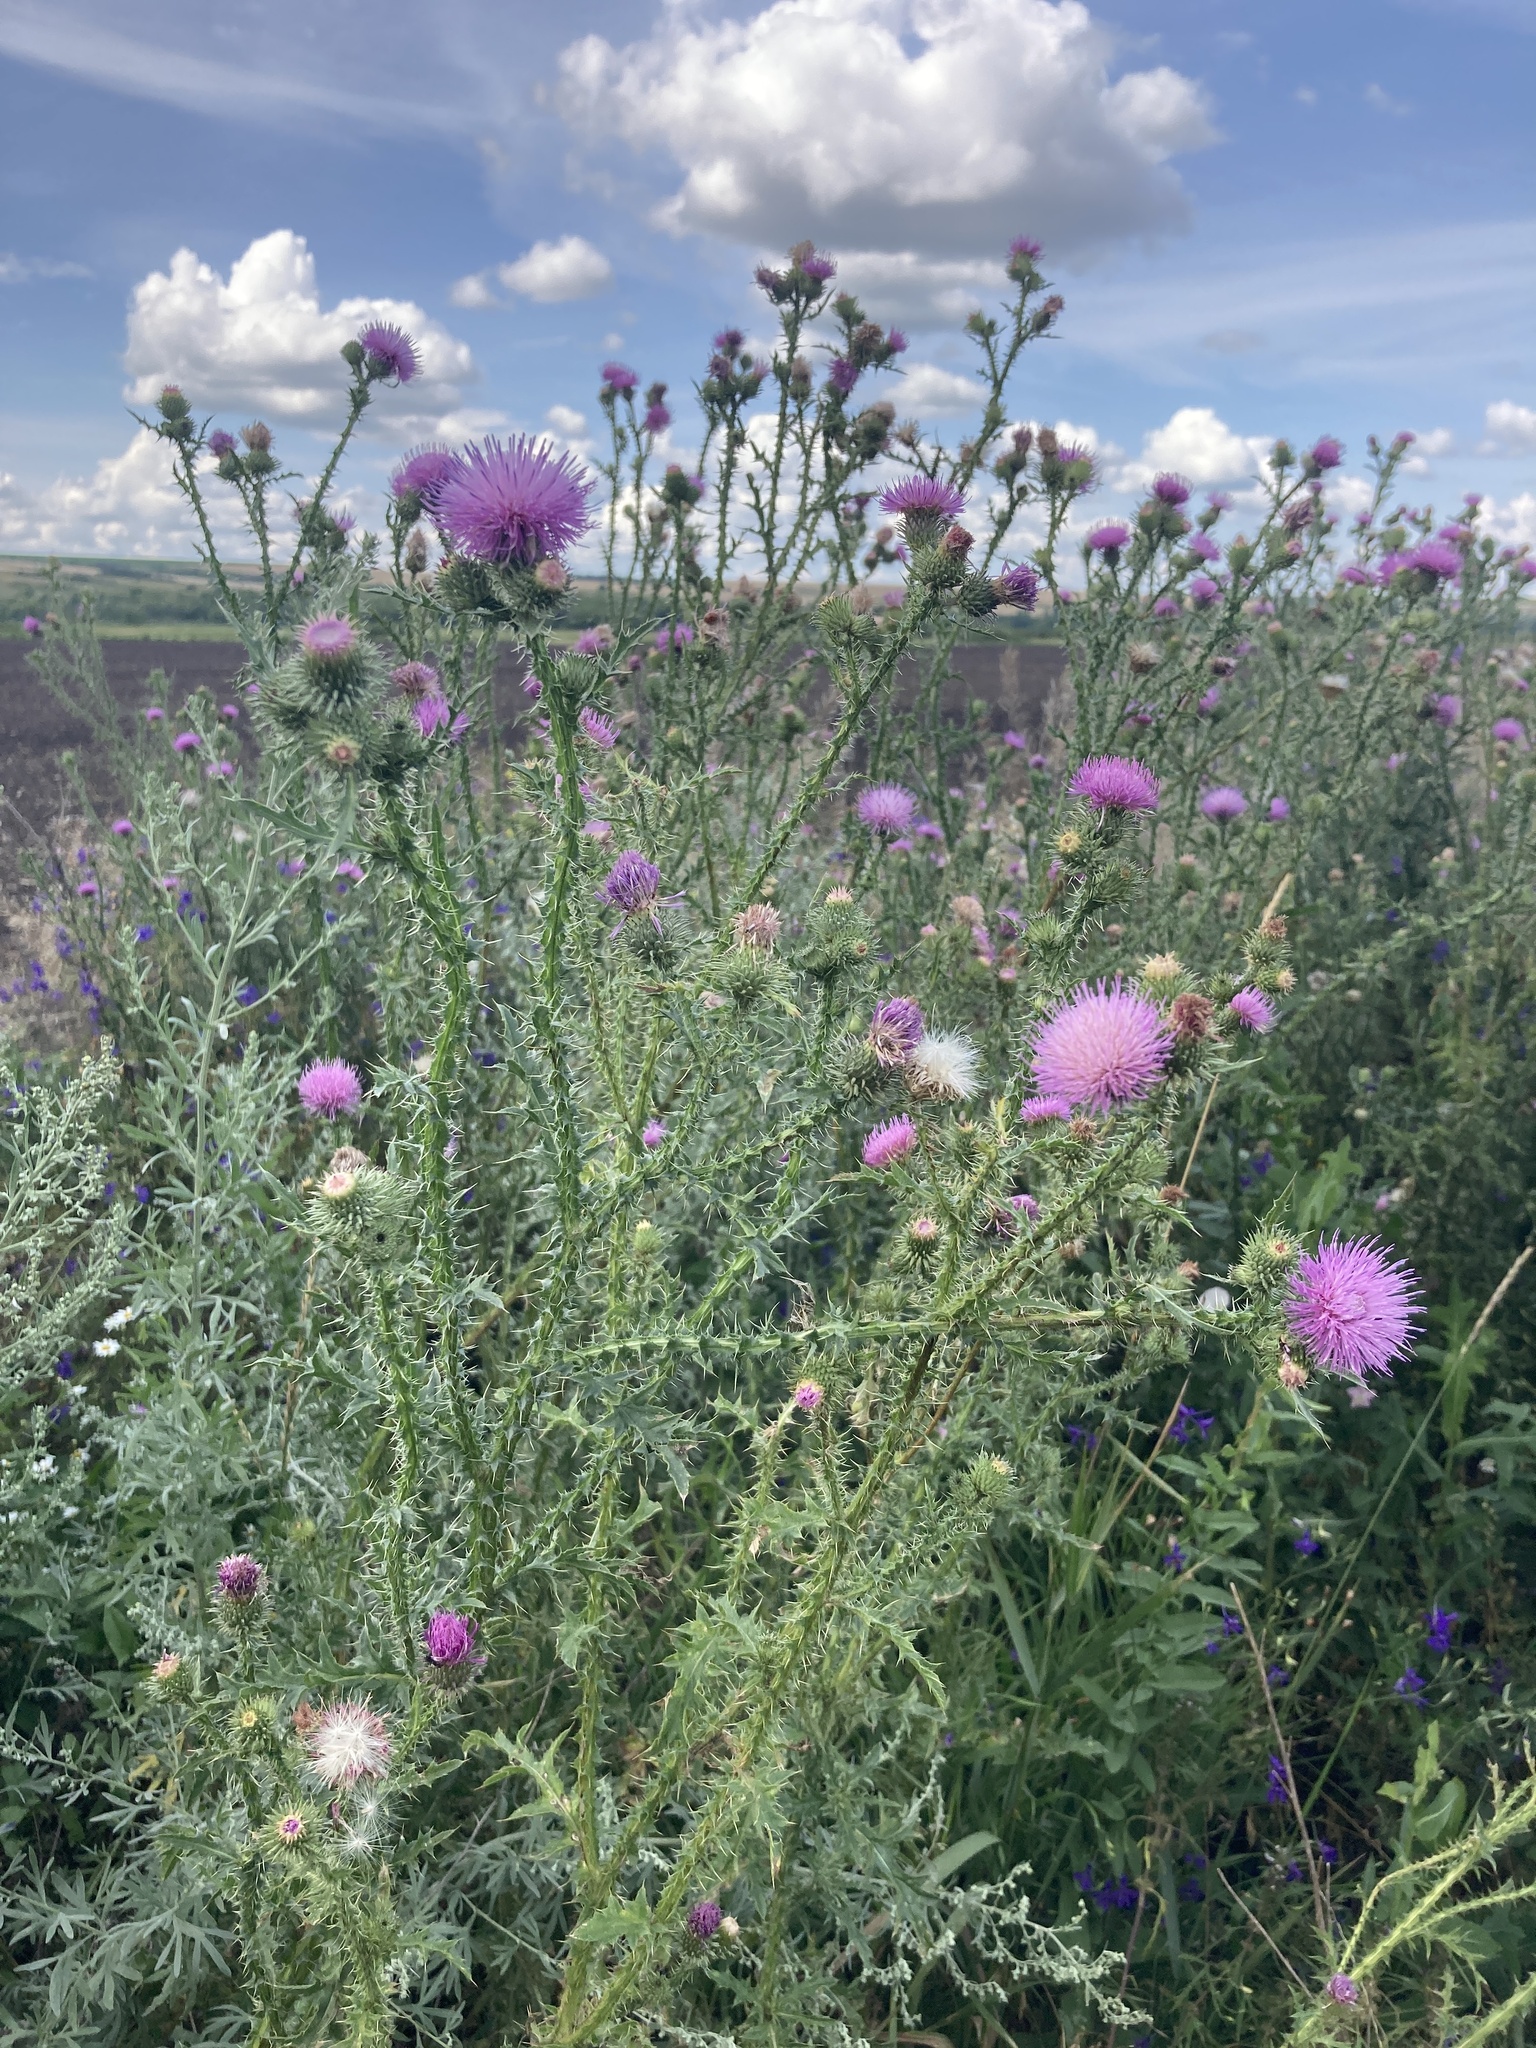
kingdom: Plantae
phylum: Tracheophyta
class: Magnoliopsida
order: Asterales
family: Asteraceae
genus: Carduus
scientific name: Carduus acanthoides
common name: Plumeless thistle
